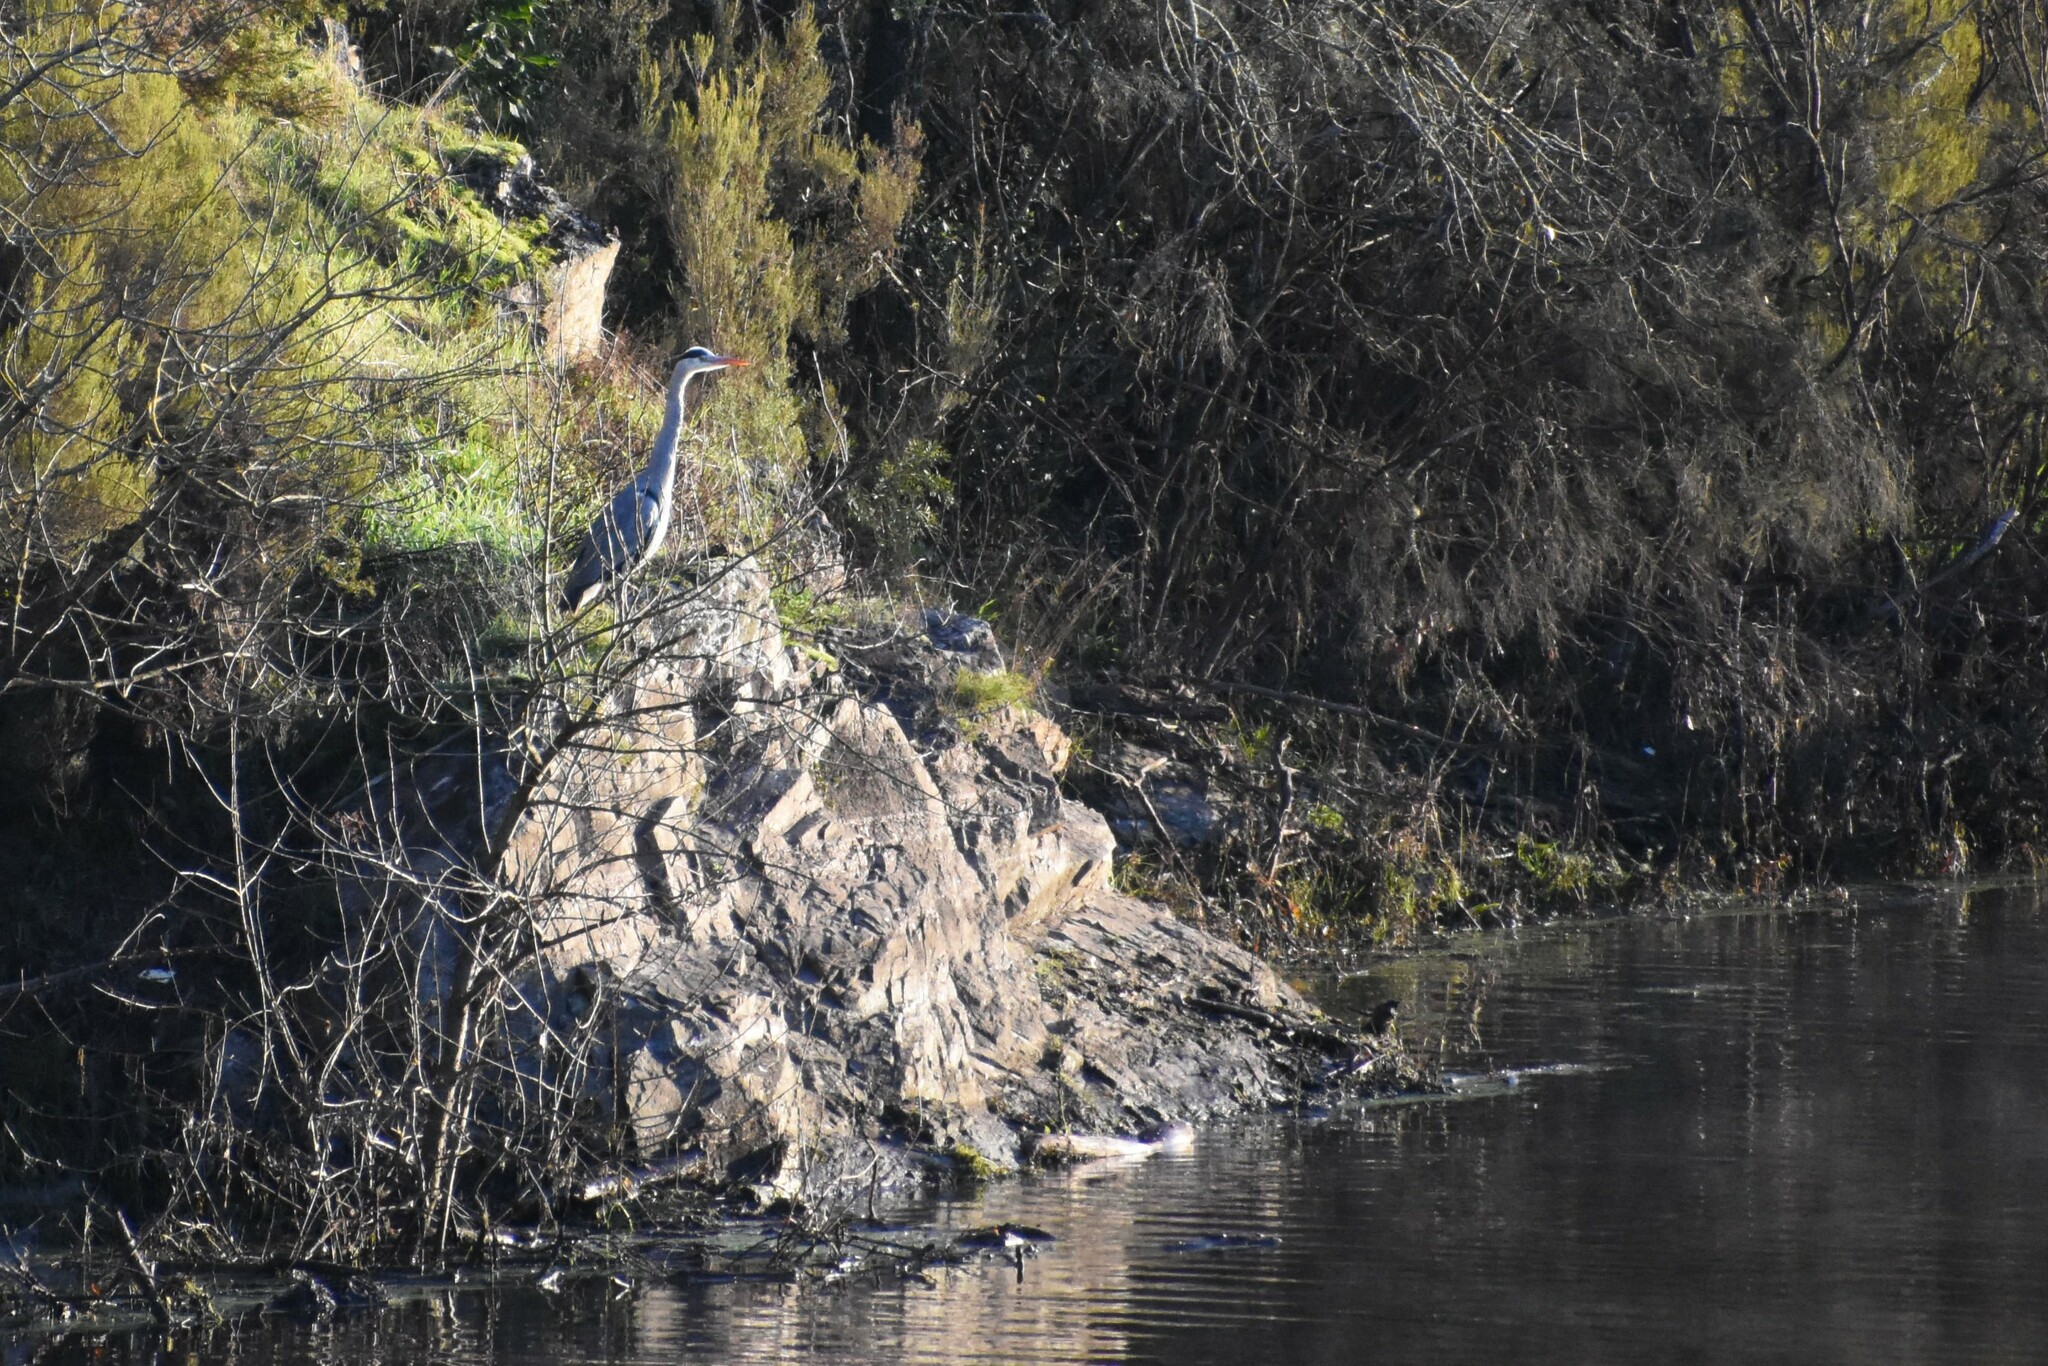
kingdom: Animalia
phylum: Chordata
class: Aves
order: Pelecaniformes
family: Ardeidae
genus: Ardea
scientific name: Ardea cinerea
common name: Grey heron
